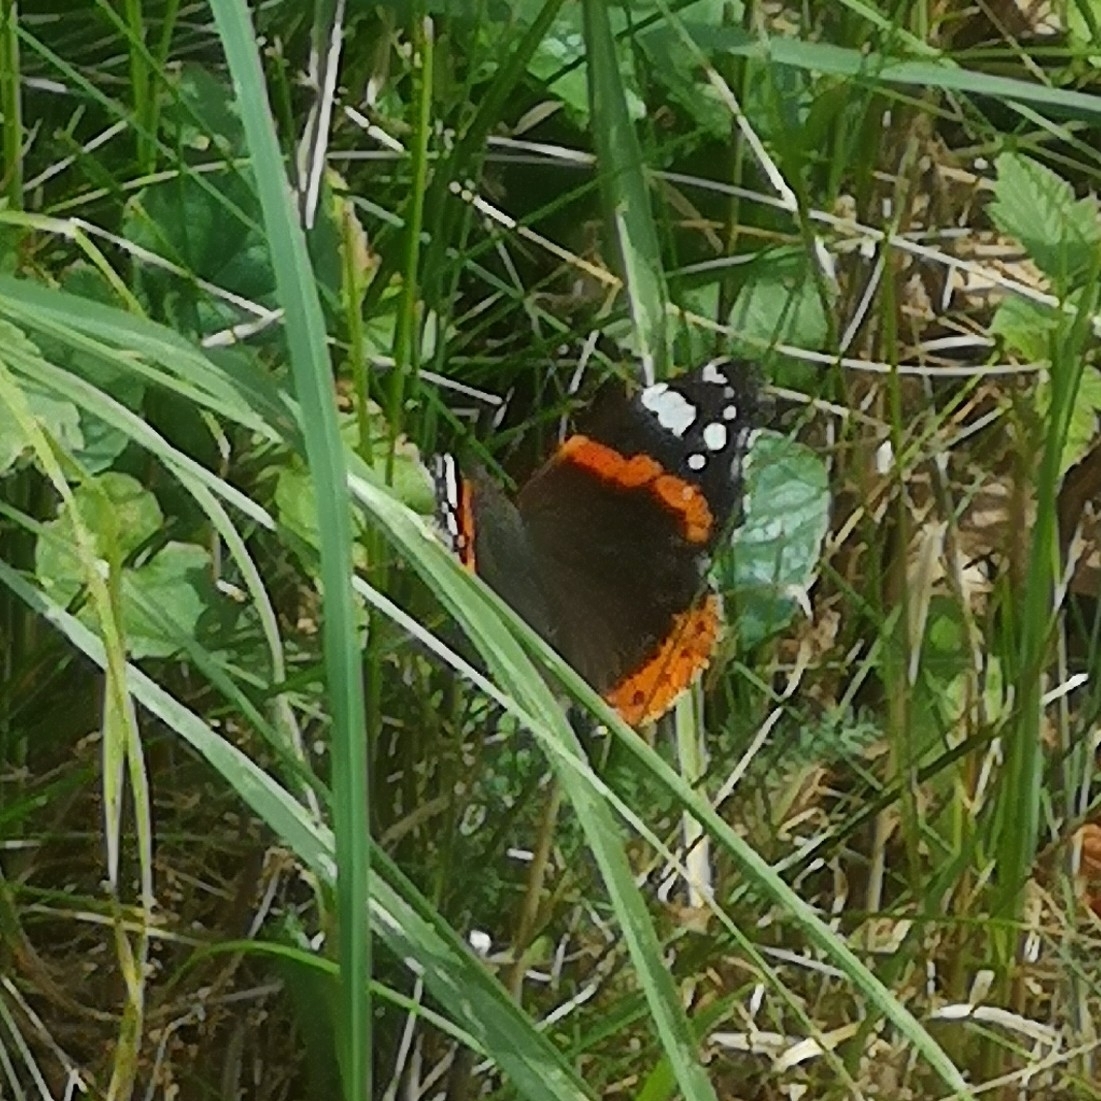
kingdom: Animalia
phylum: Arthropoda
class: Insecta
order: Lepidoptera
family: Nymphalidae
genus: Vanessa
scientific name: Vanessa atalanta
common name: Red admiral
